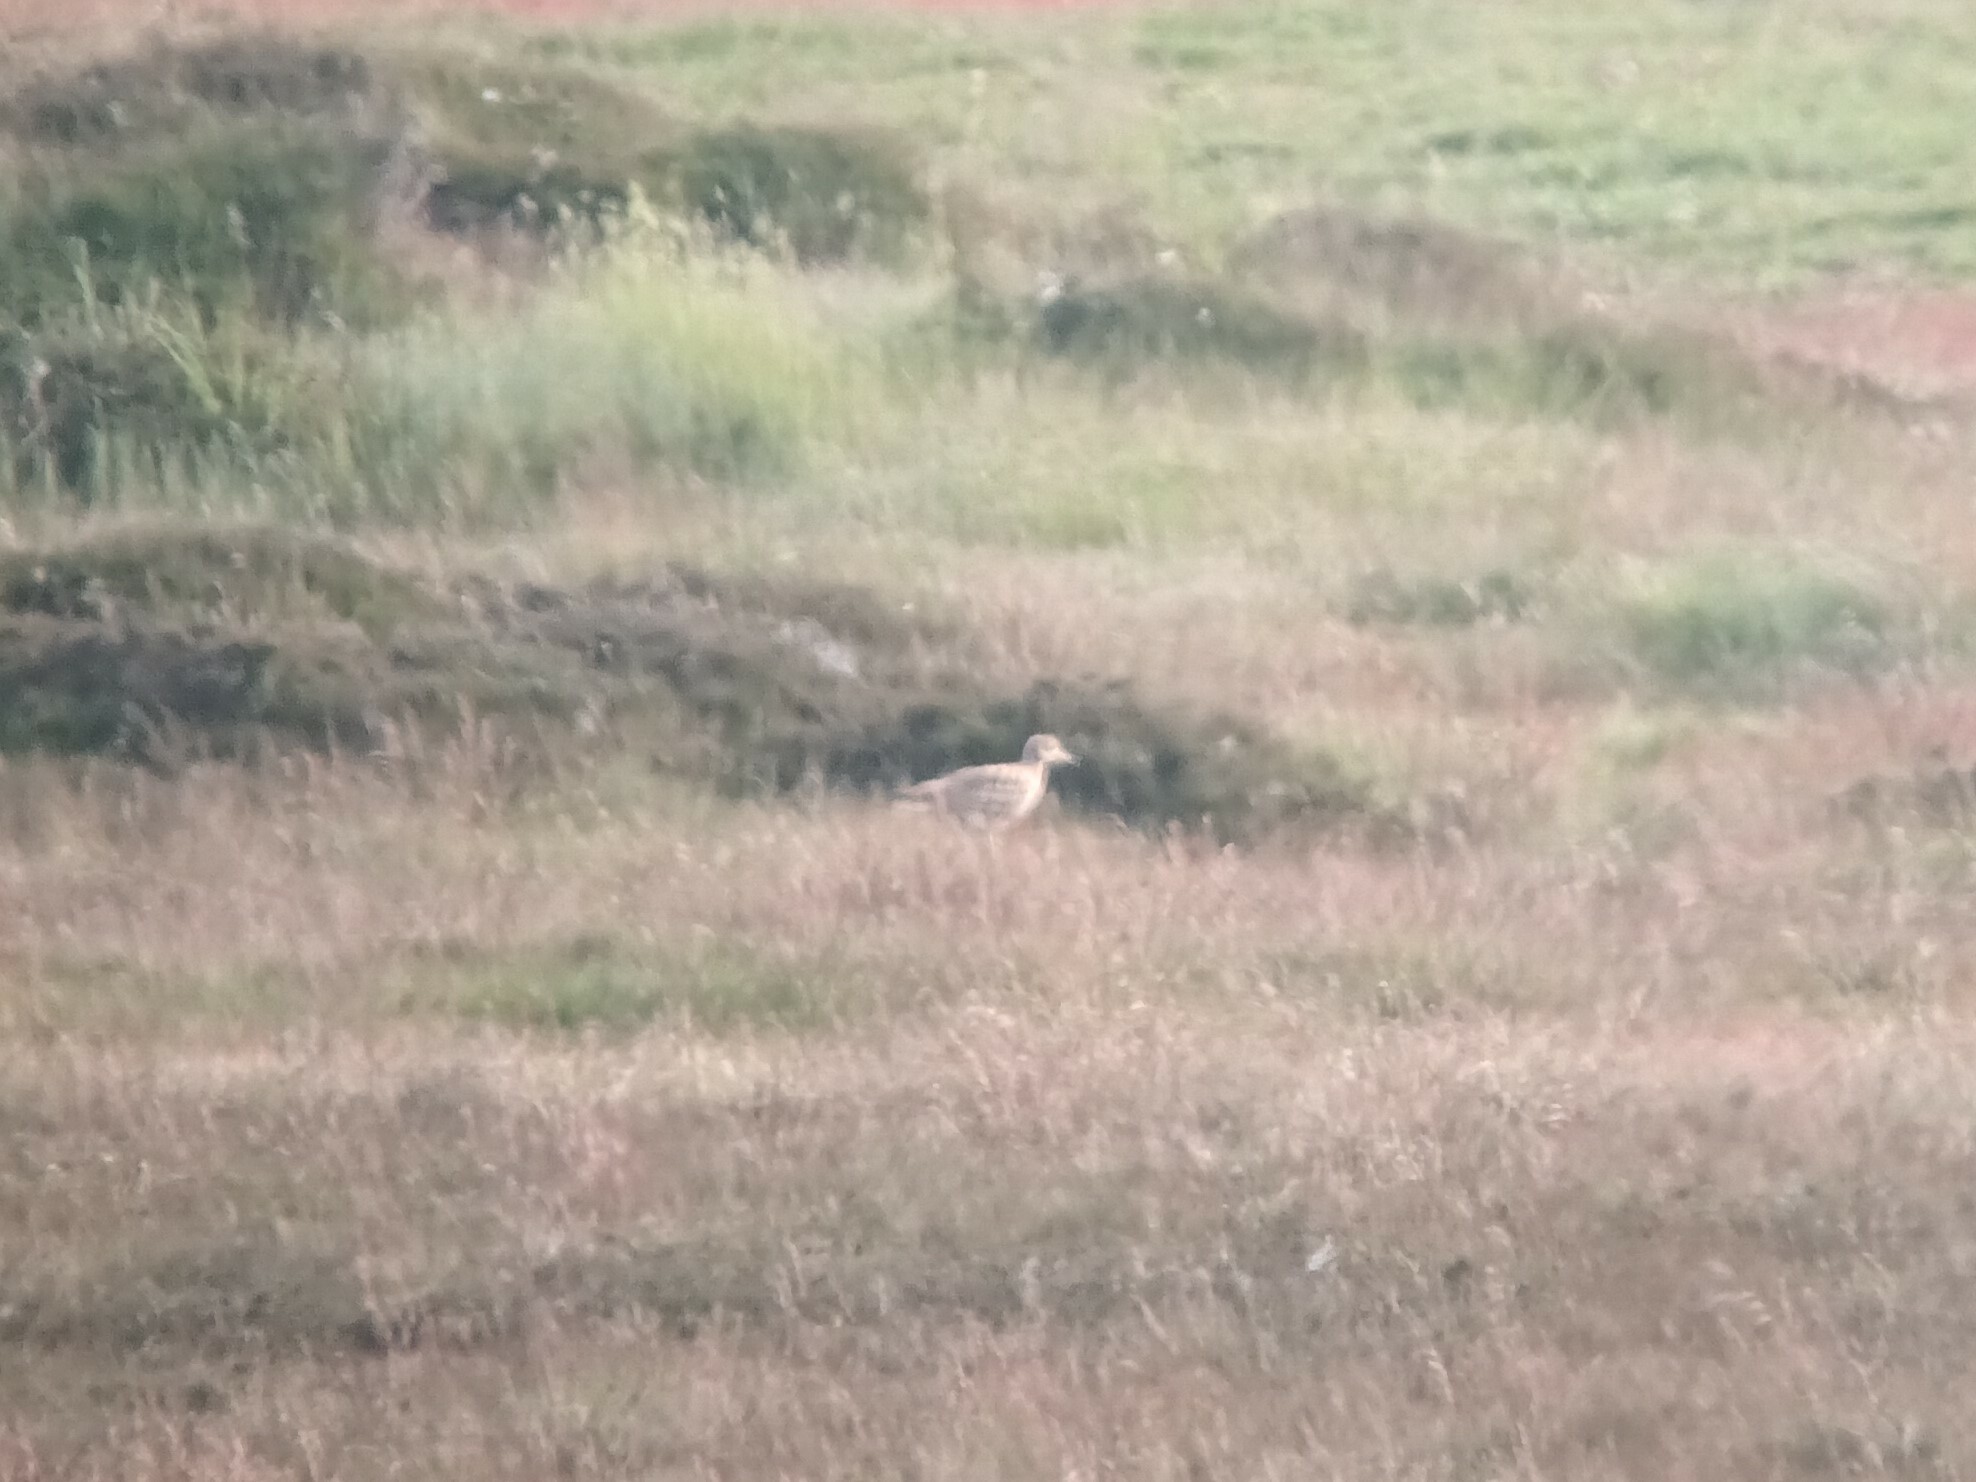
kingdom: Animalia
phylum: Chordata
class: Aves
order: Charadriiformes
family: Burhinidae
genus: Burhinus
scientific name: Burhinus oedicnemus
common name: Eurasian stone-curlew
